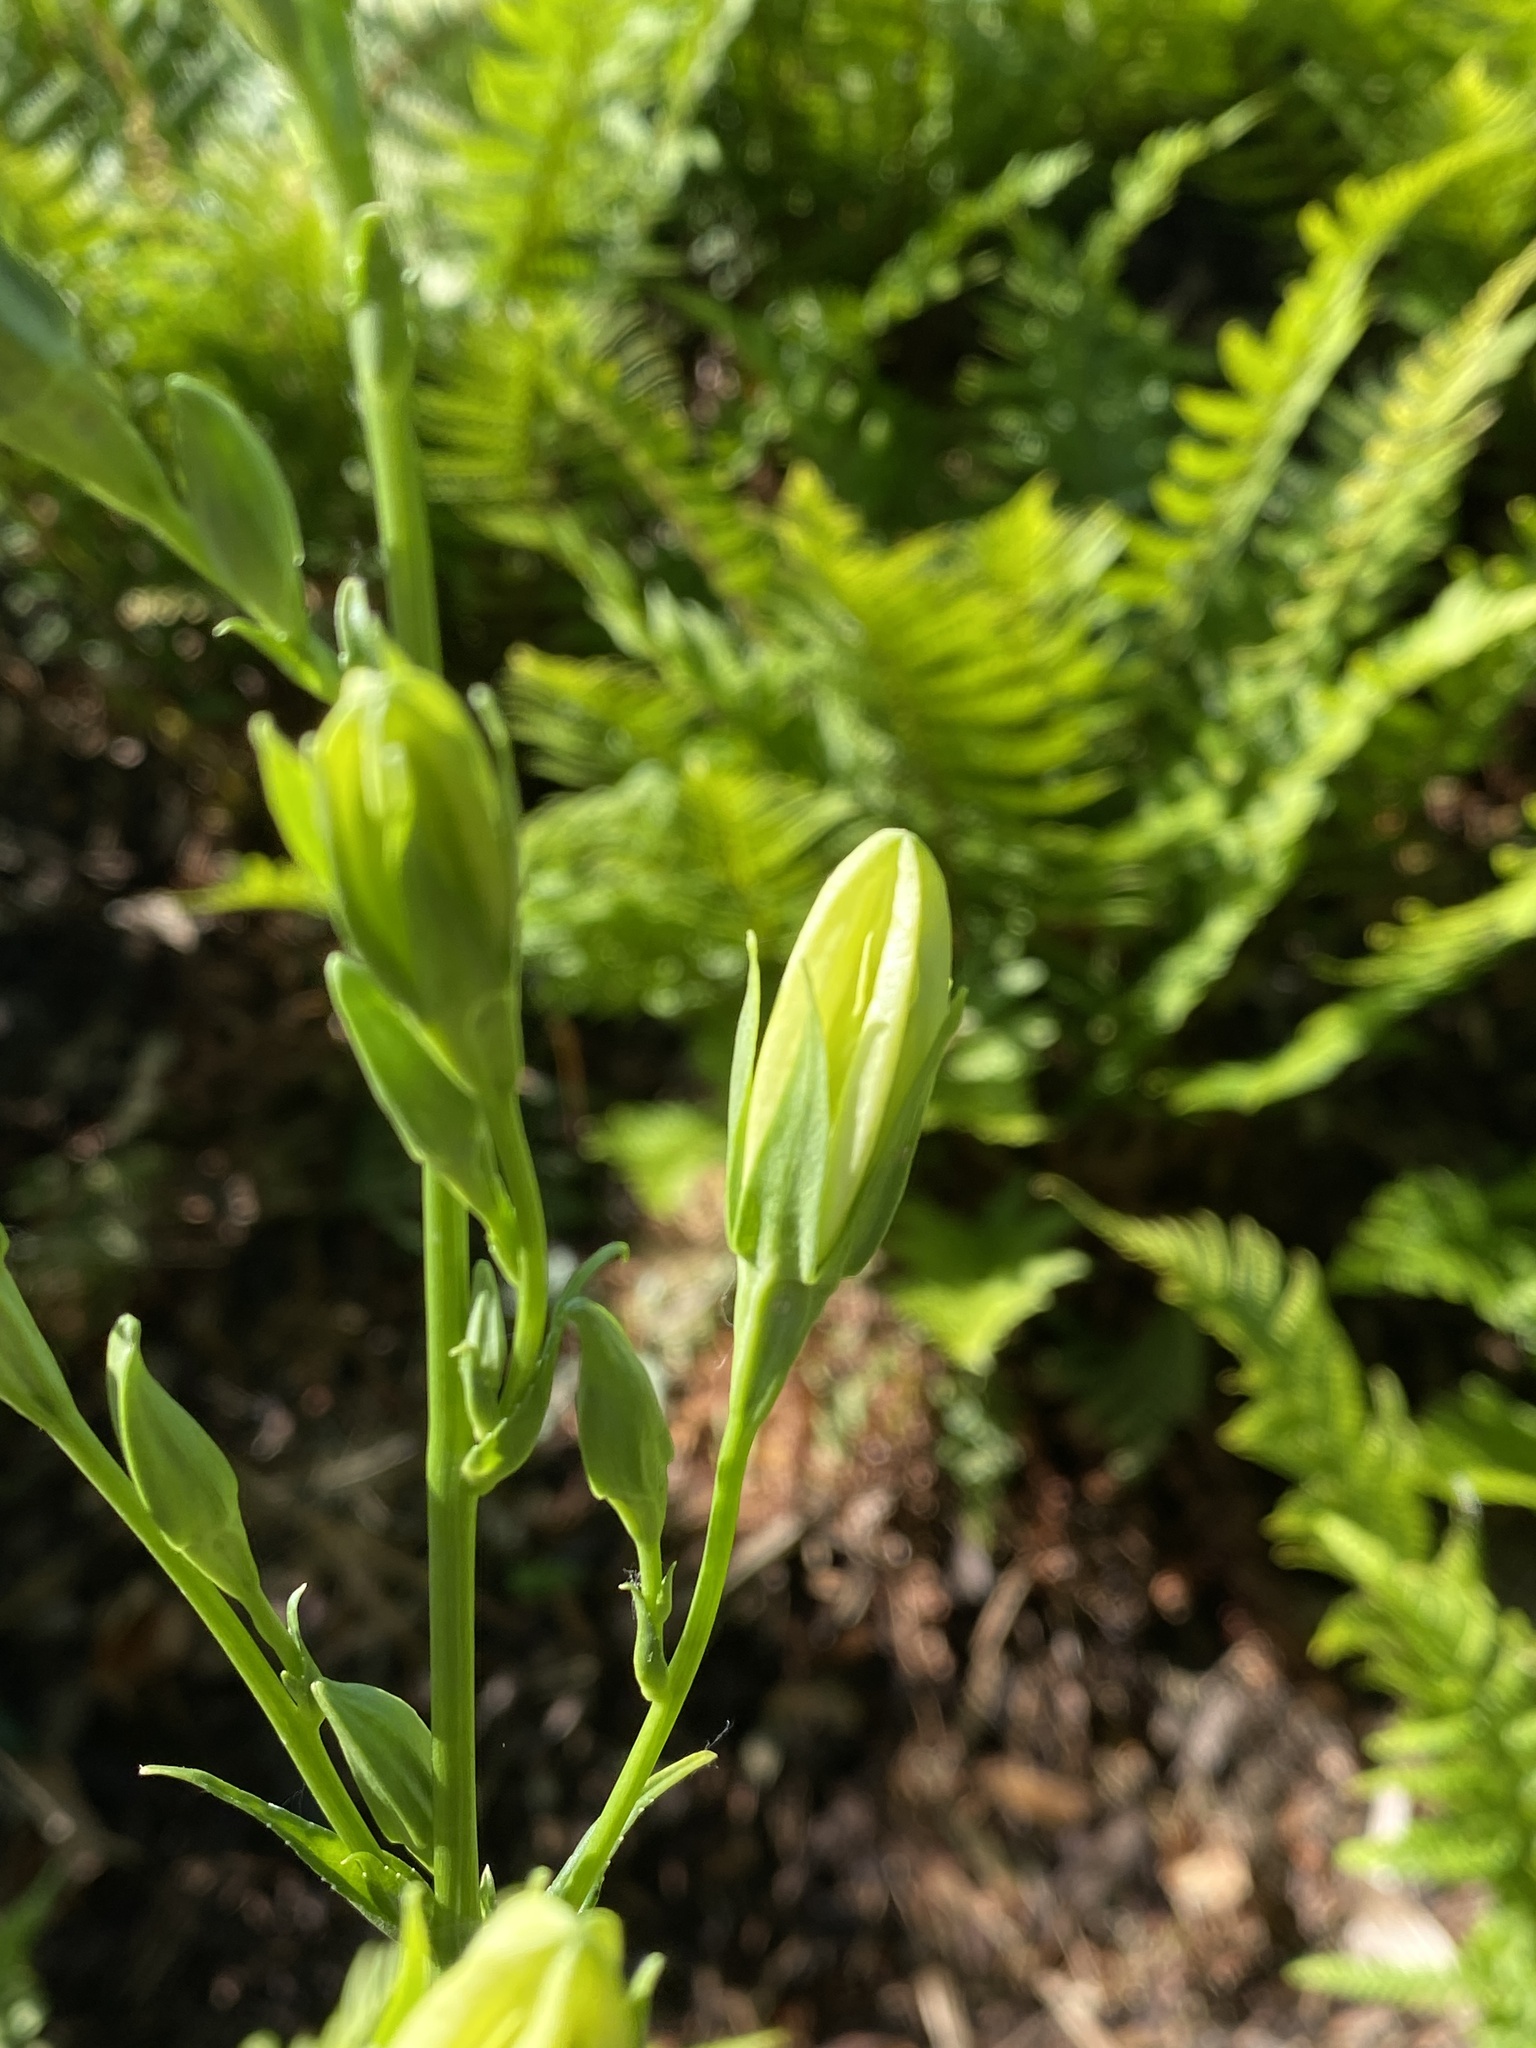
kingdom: Plantae
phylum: Tracheophyta
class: Magnoliopsida
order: Asterales
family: Campanulaceae
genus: Campanula
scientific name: Campanula persicifolia
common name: Peach-leaved bellflower
